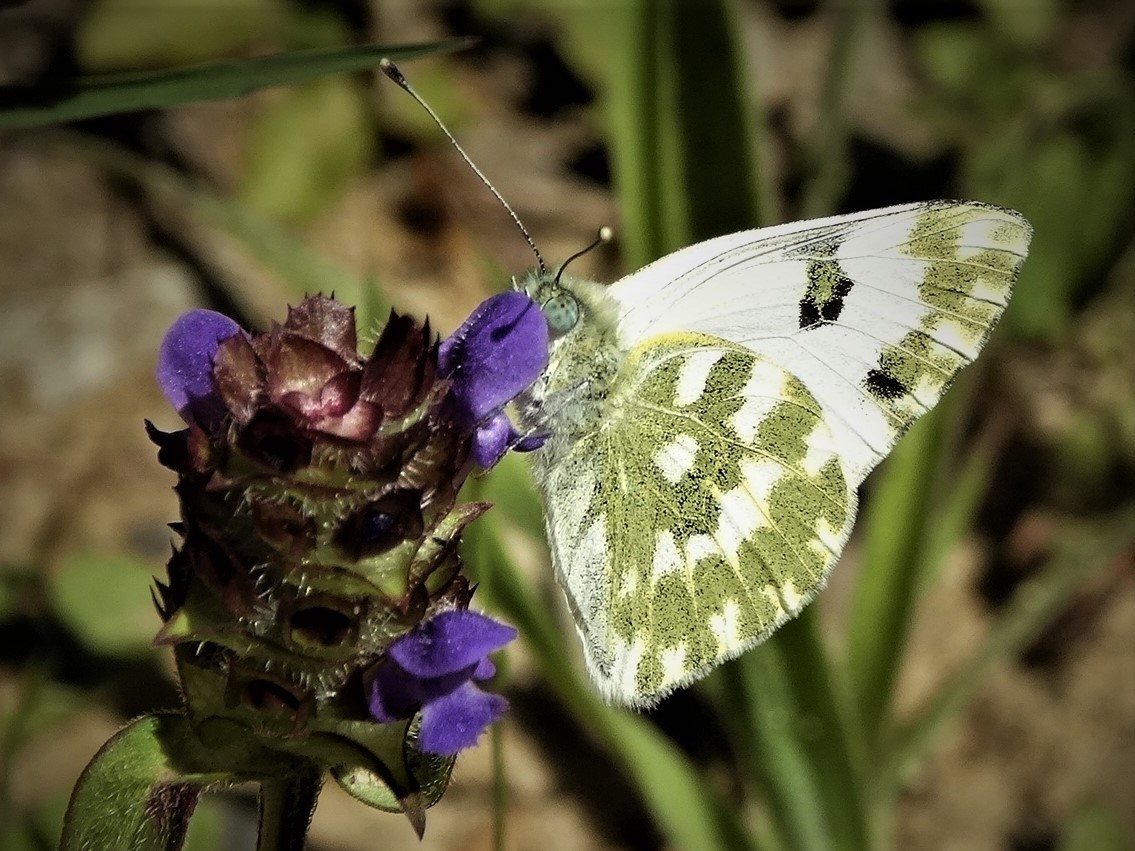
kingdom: Animalia
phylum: Arthropoda
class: Insecta
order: Lepidoptera
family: Pieridae
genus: Pontia
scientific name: Pontia daplidice
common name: Bath white
